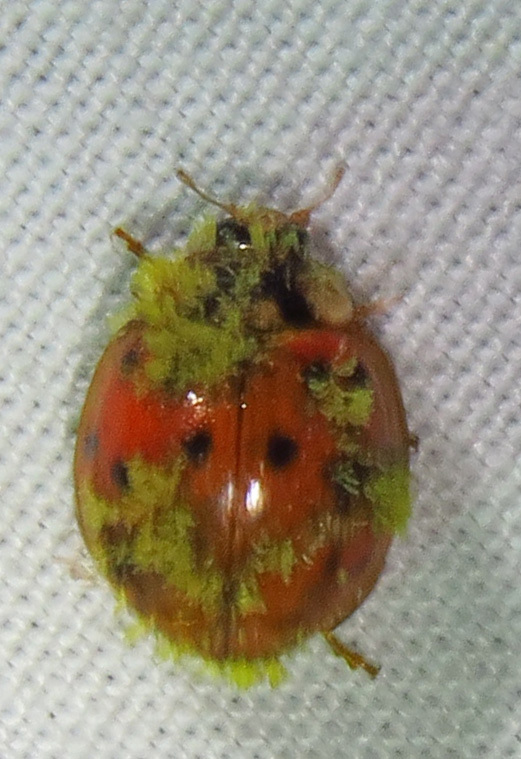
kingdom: Fungi
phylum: Ascomycota
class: Laboulbeniomycetes
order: Laboulbeniales
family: Laboulbeniaceae
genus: Hesperomyces
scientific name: Hesperomyces harmoniae
